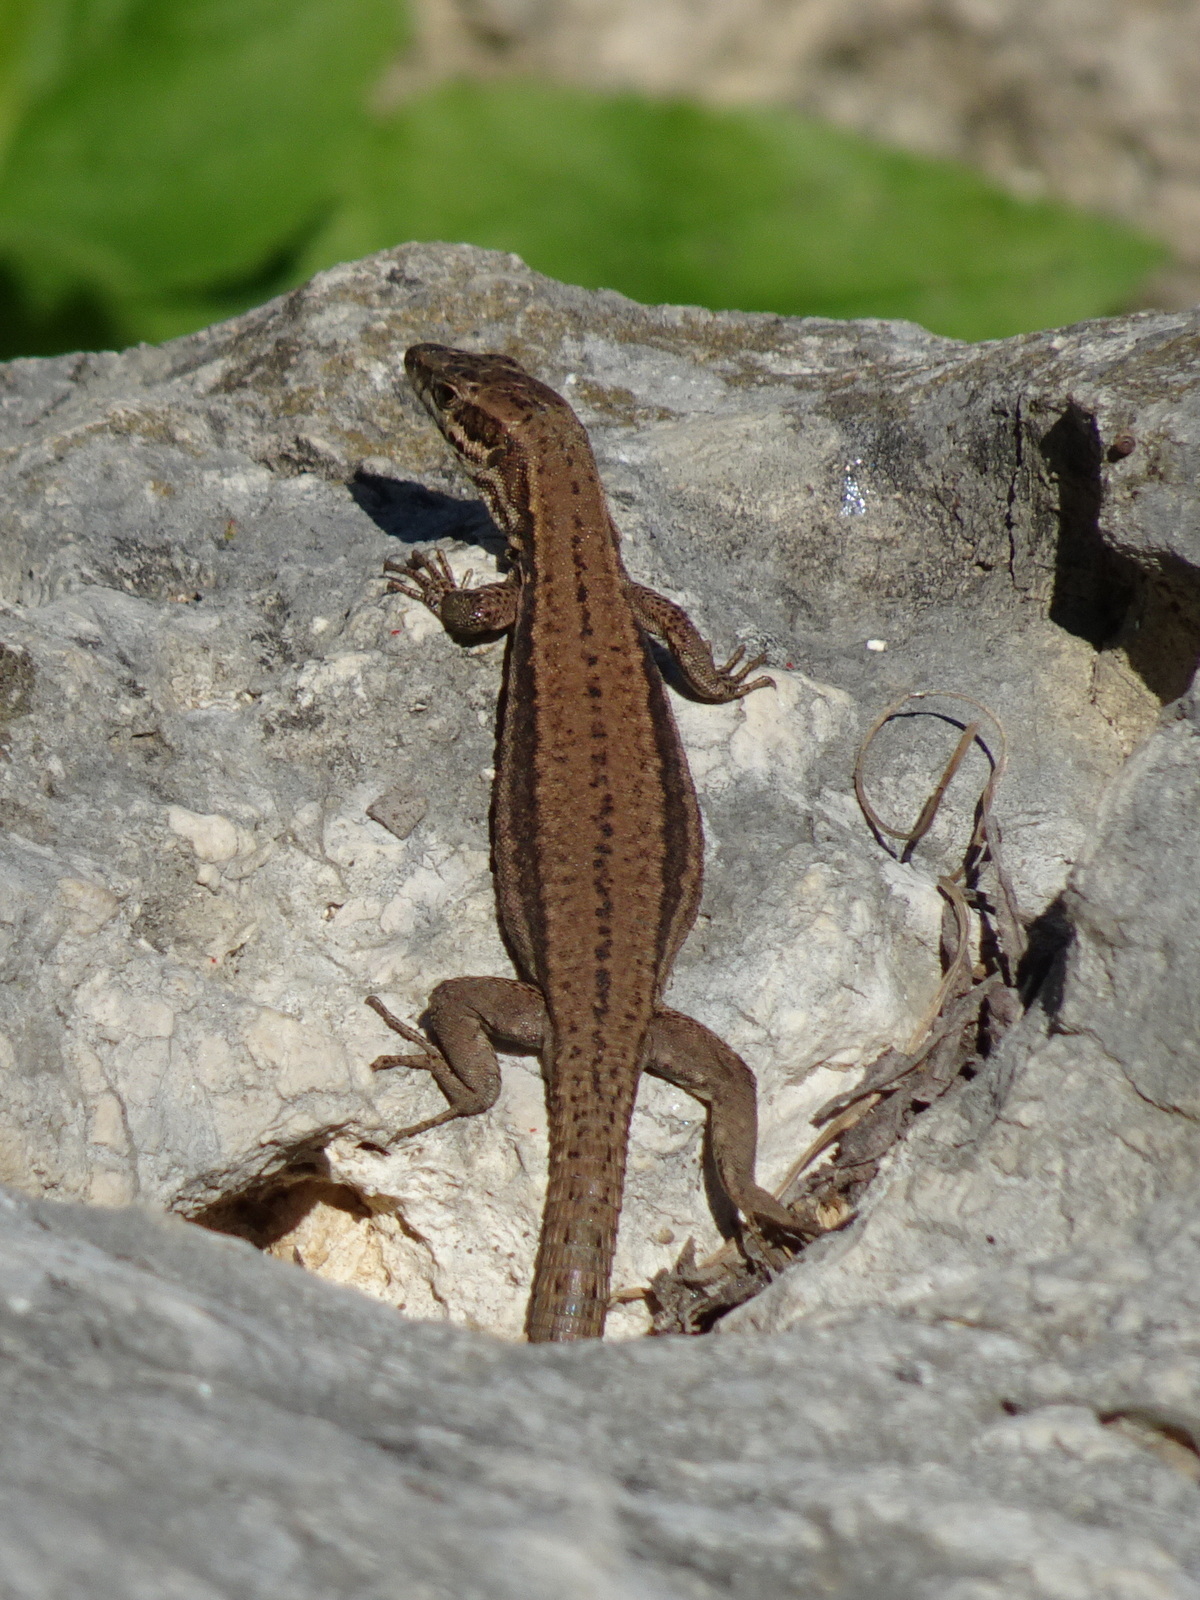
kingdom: Animalia
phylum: Chordata
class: Squamata
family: Lacertidae
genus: Podarcis
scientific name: Podarcis muralis
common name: Common wall lizard
